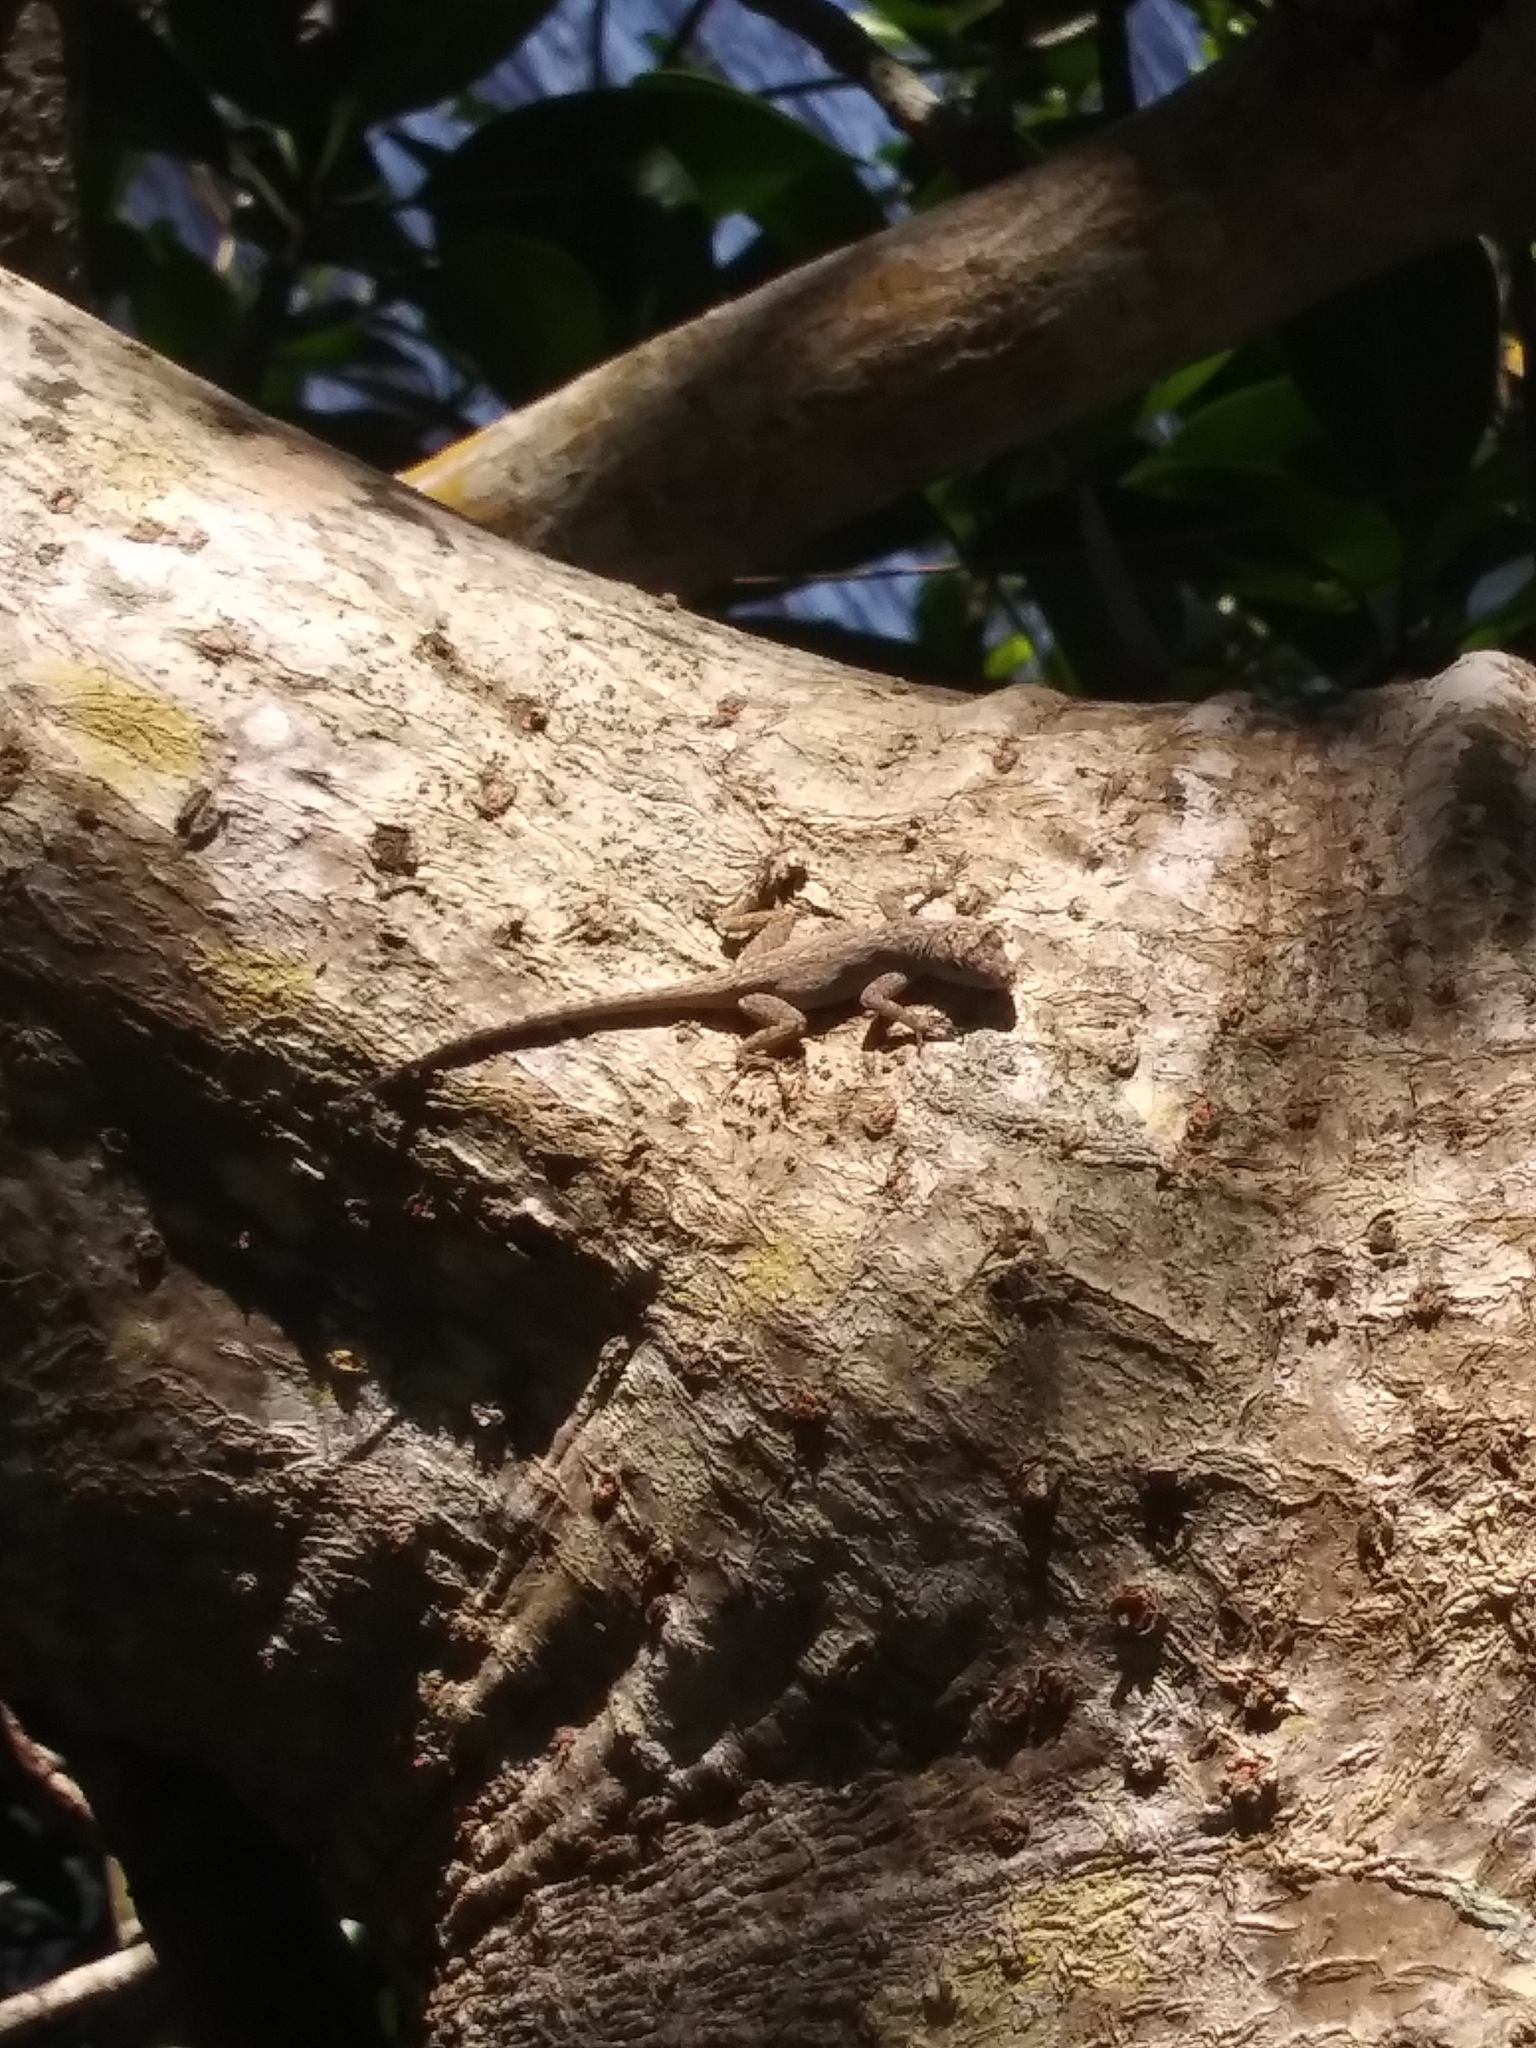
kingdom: Animalia
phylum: Chordata
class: Squamata
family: Dactyloidae
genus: Anolis
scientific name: Anolis distichus
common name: Bark anole
